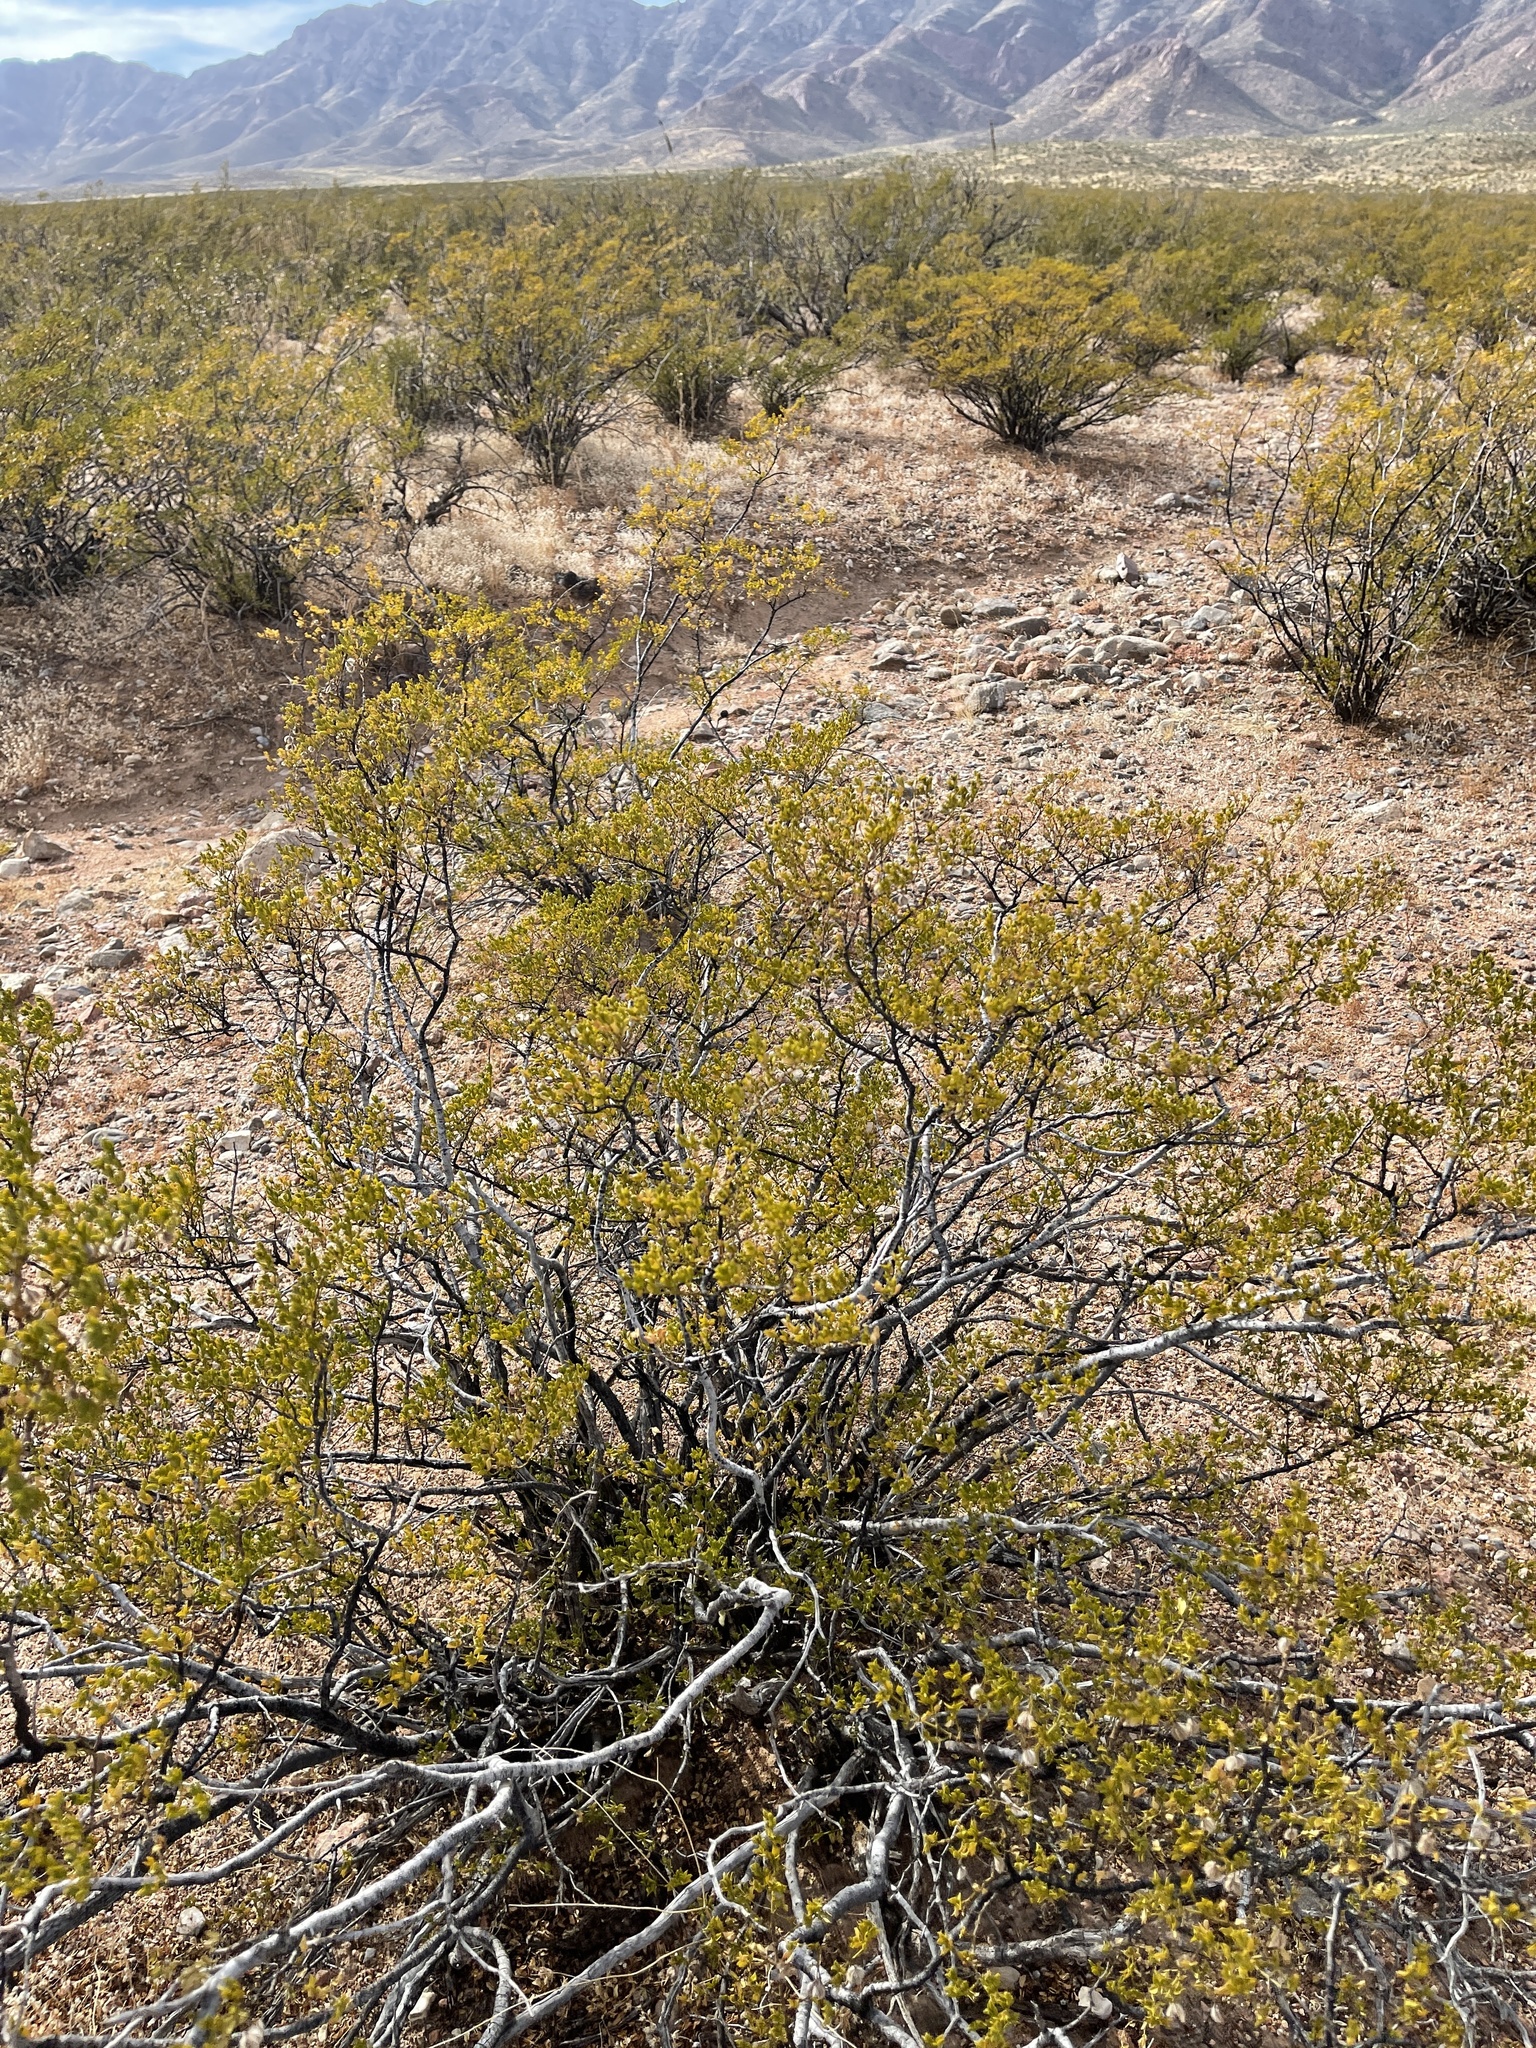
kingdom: Plantae
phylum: Tracheophyta
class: Magnoliopsida
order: Zygophyllales
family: Zygophyllaceae
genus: Larrea
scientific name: Larrea tridentata
